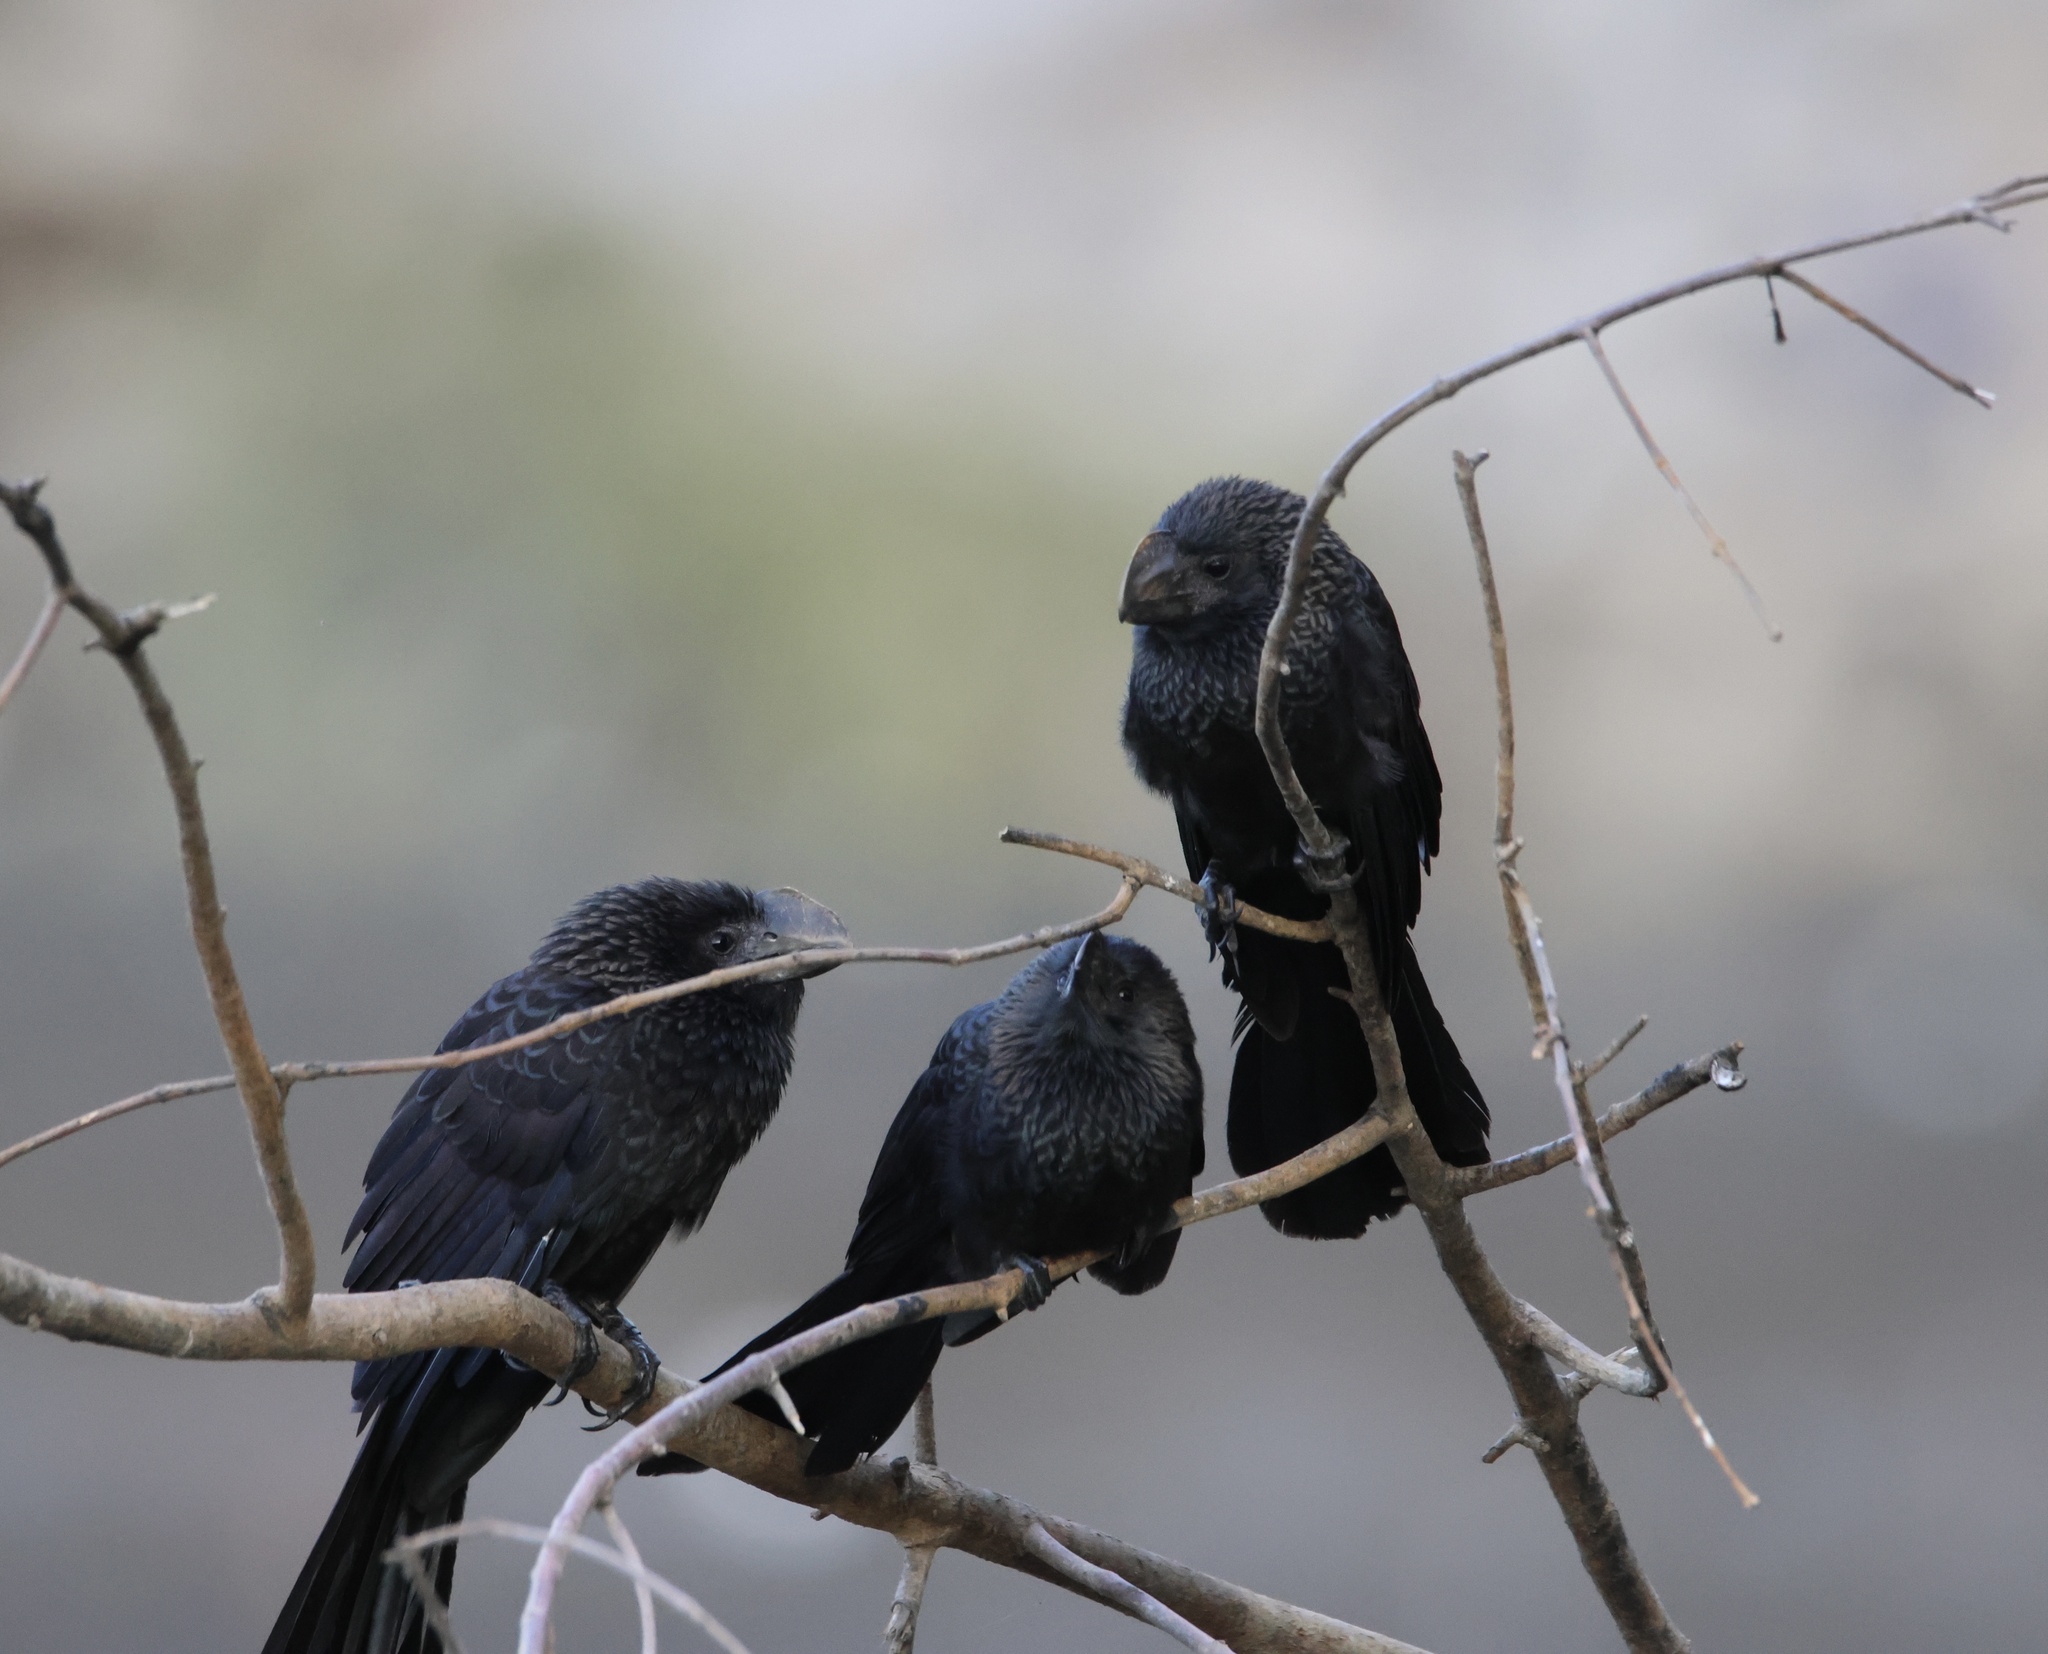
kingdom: Animalia
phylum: Chordata
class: Aves
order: Cuculiformes
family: Cuculidae
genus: Crotophaga
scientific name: Crotophaga ani
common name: Smooth-billed ani
